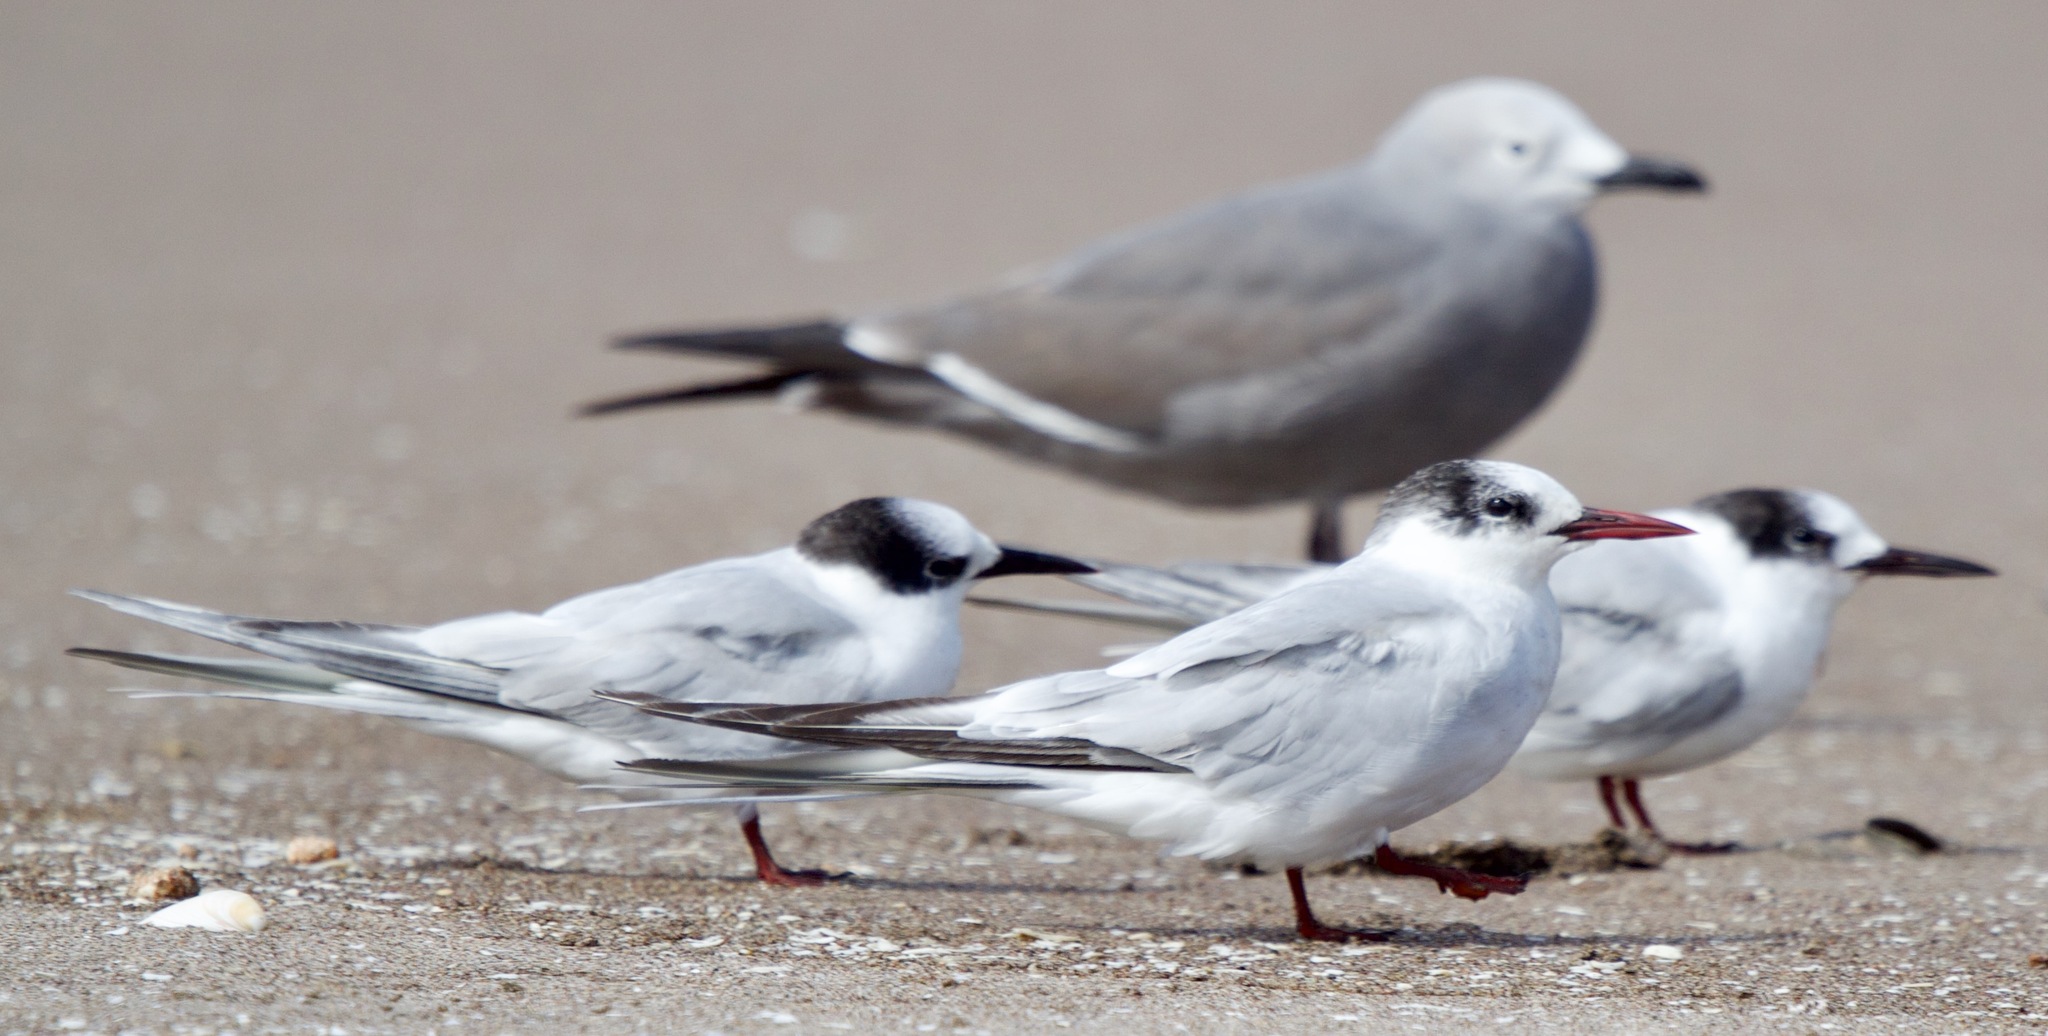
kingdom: Animalia
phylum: Chordata
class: Aves
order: Charadriiformes
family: Laridae
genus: Sterna
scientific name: Sterna hirundinacea
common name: South american tern
